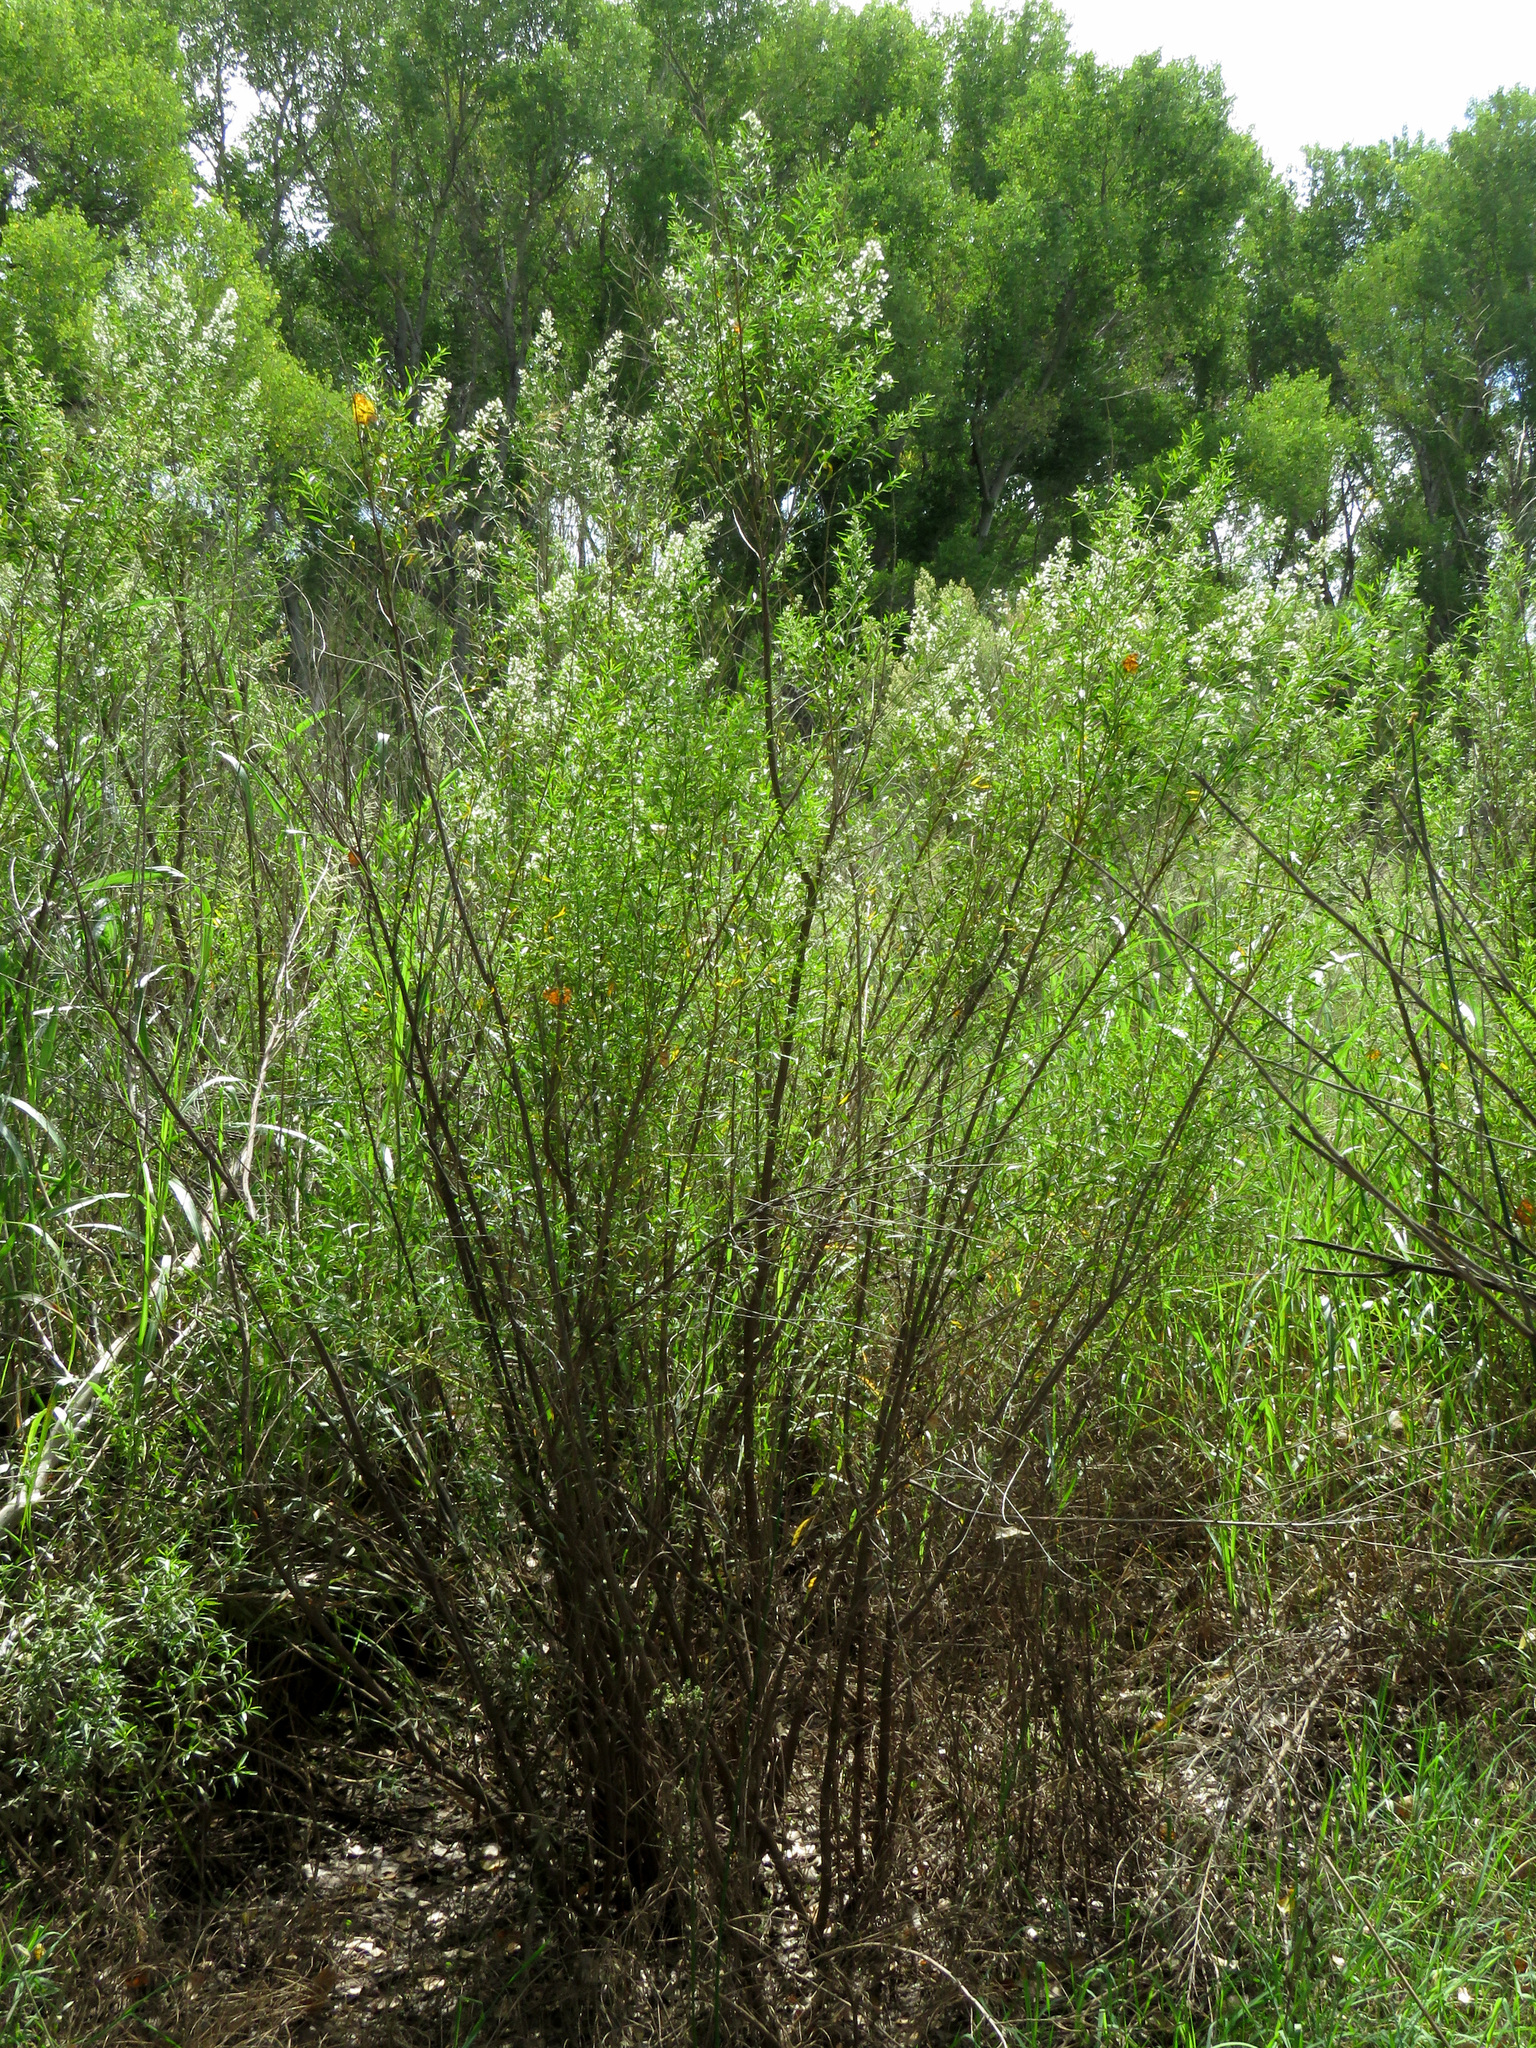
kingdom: Plantae
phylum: Tracheophyta
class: Magnoliopsida
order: Asterales
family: Asteraceae
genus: Baccharis
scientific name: Baccharis salicina
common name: Willow baccharis
